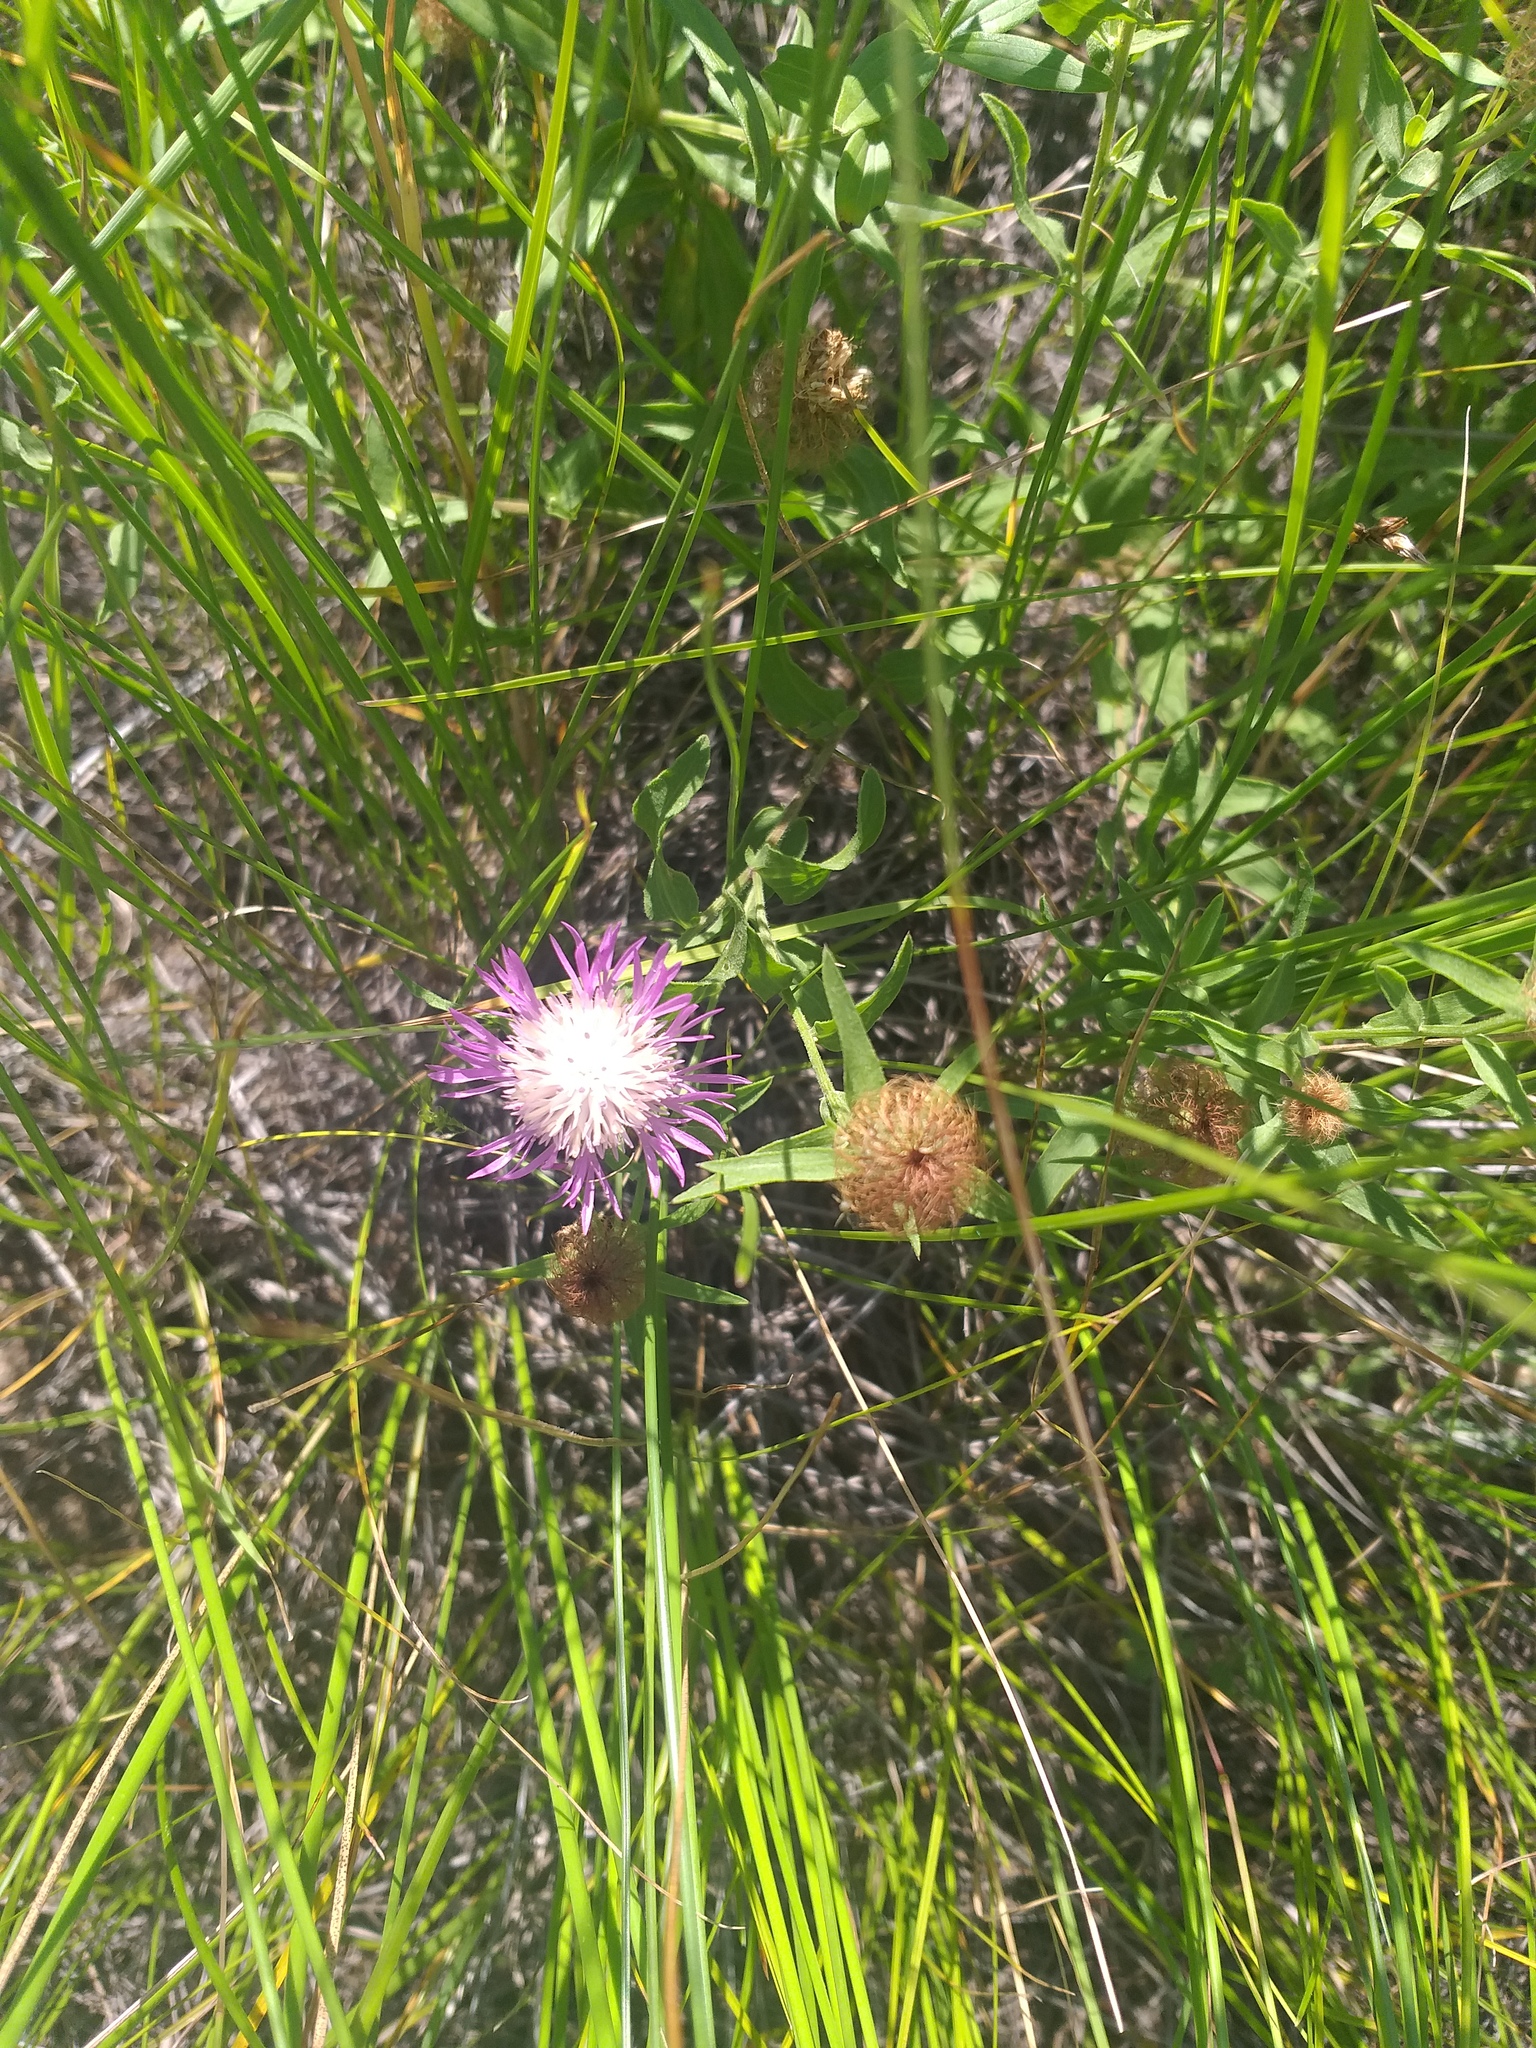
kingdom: Plantae
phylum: Tracheophyta
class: Magnoliopsida
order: Asterales
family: Asteraceae
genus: Centaurea
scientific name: Centaurea trichocephala
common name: Feather-head knapweed
